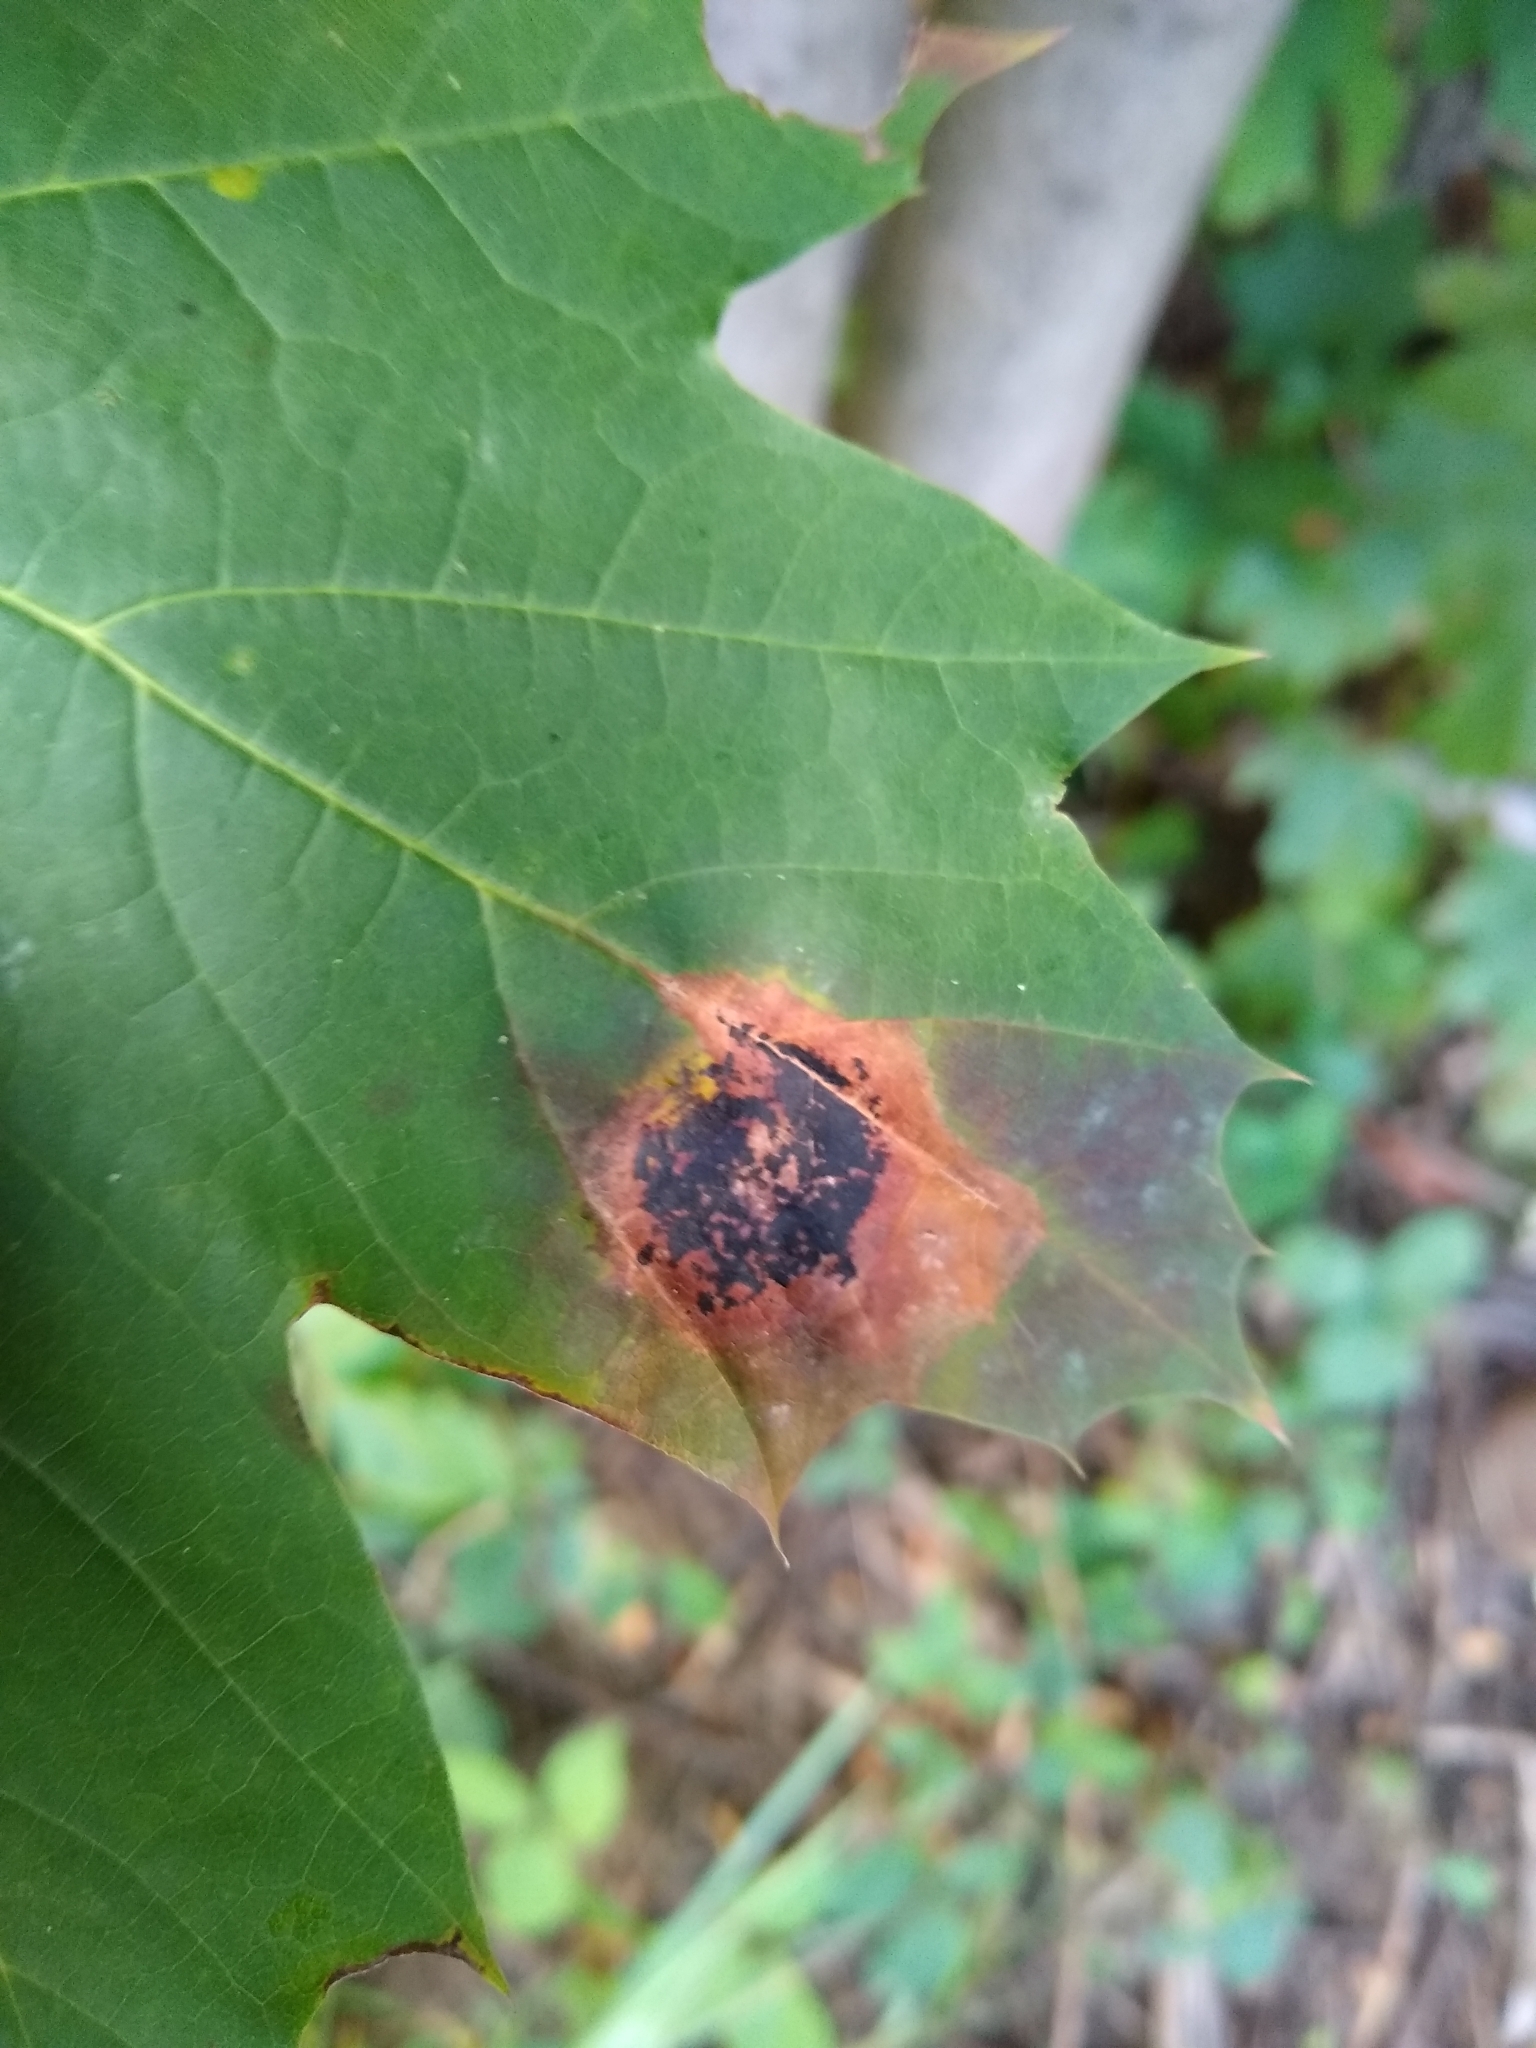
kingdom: Fungi
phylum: Ascomycota
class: Leotiomycetes
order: Rhytismatales
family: Rhytismataceae
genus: Rhytisma
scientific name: Rhytisma acerinum
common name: European tar spot
